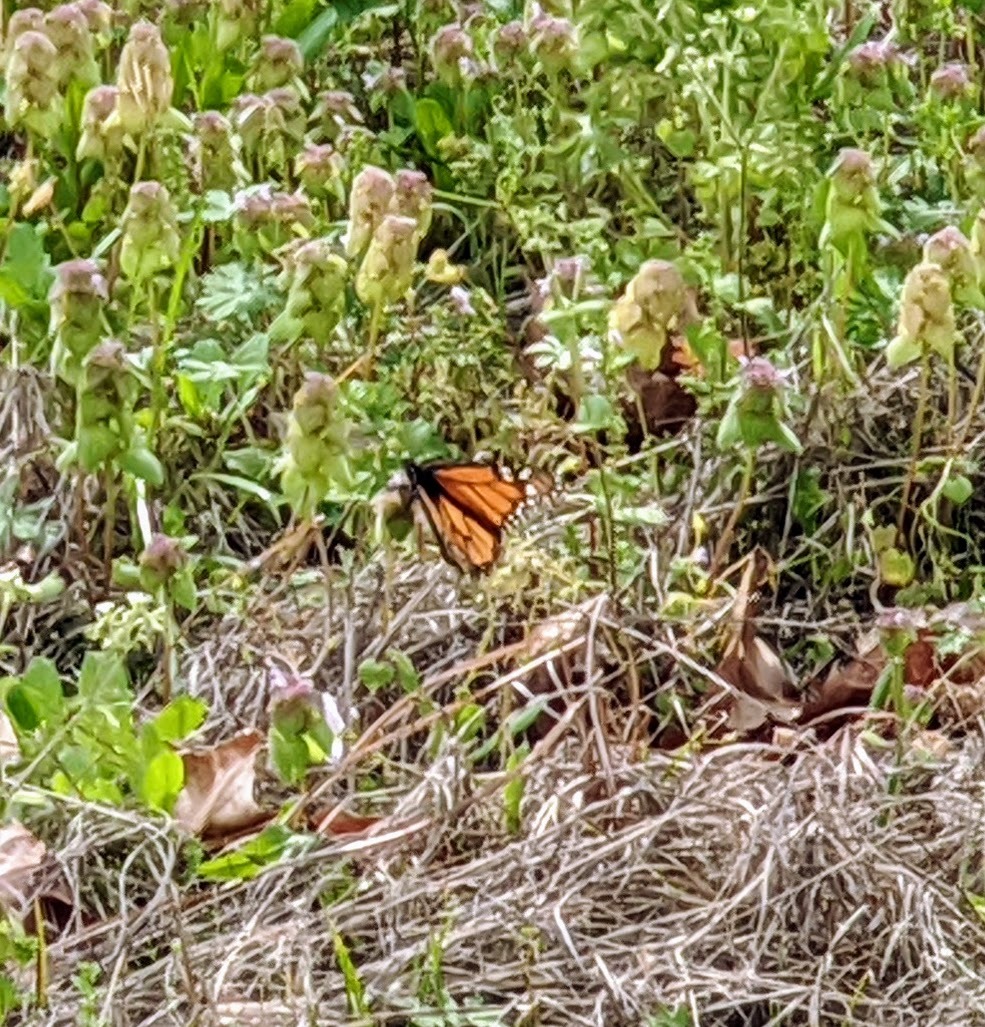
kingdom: Animalia
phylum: Arthropoda
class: Insecta
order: Lepidoptera
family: Nymphalidae
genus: Danaus
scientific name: Danaus plexippus
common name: Monarch
